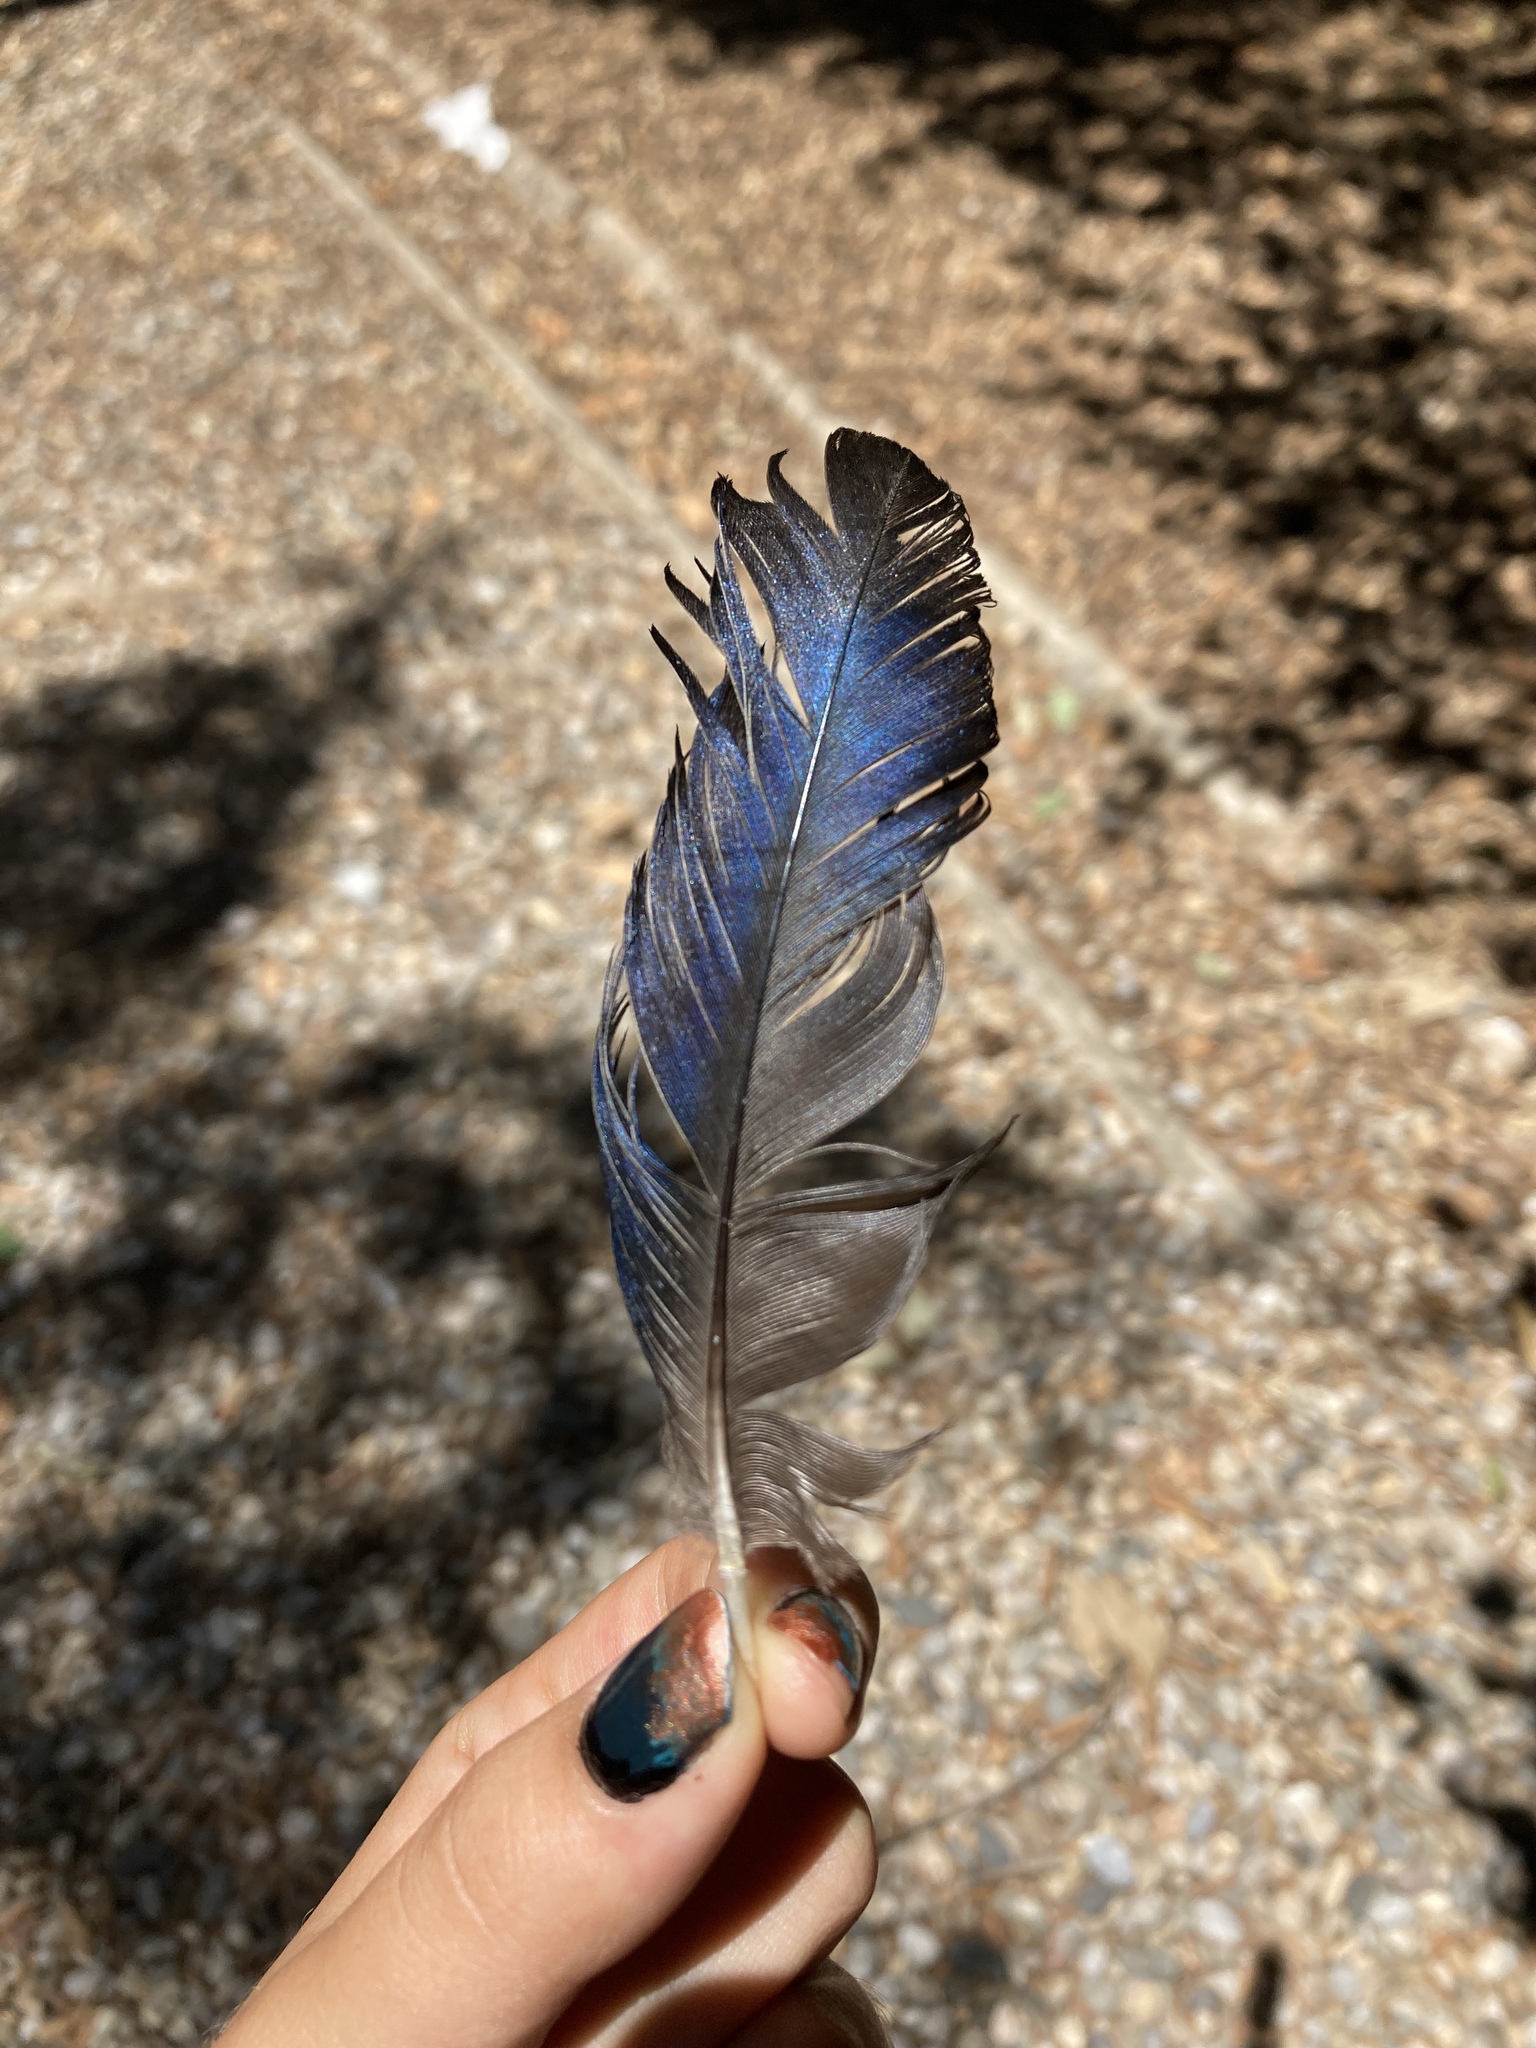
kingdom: Animalia
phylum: Chordata
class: Aves
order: Passeriformes
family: Corvidae
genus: Pica
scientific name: Pica pica
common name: Eurasian magpie
